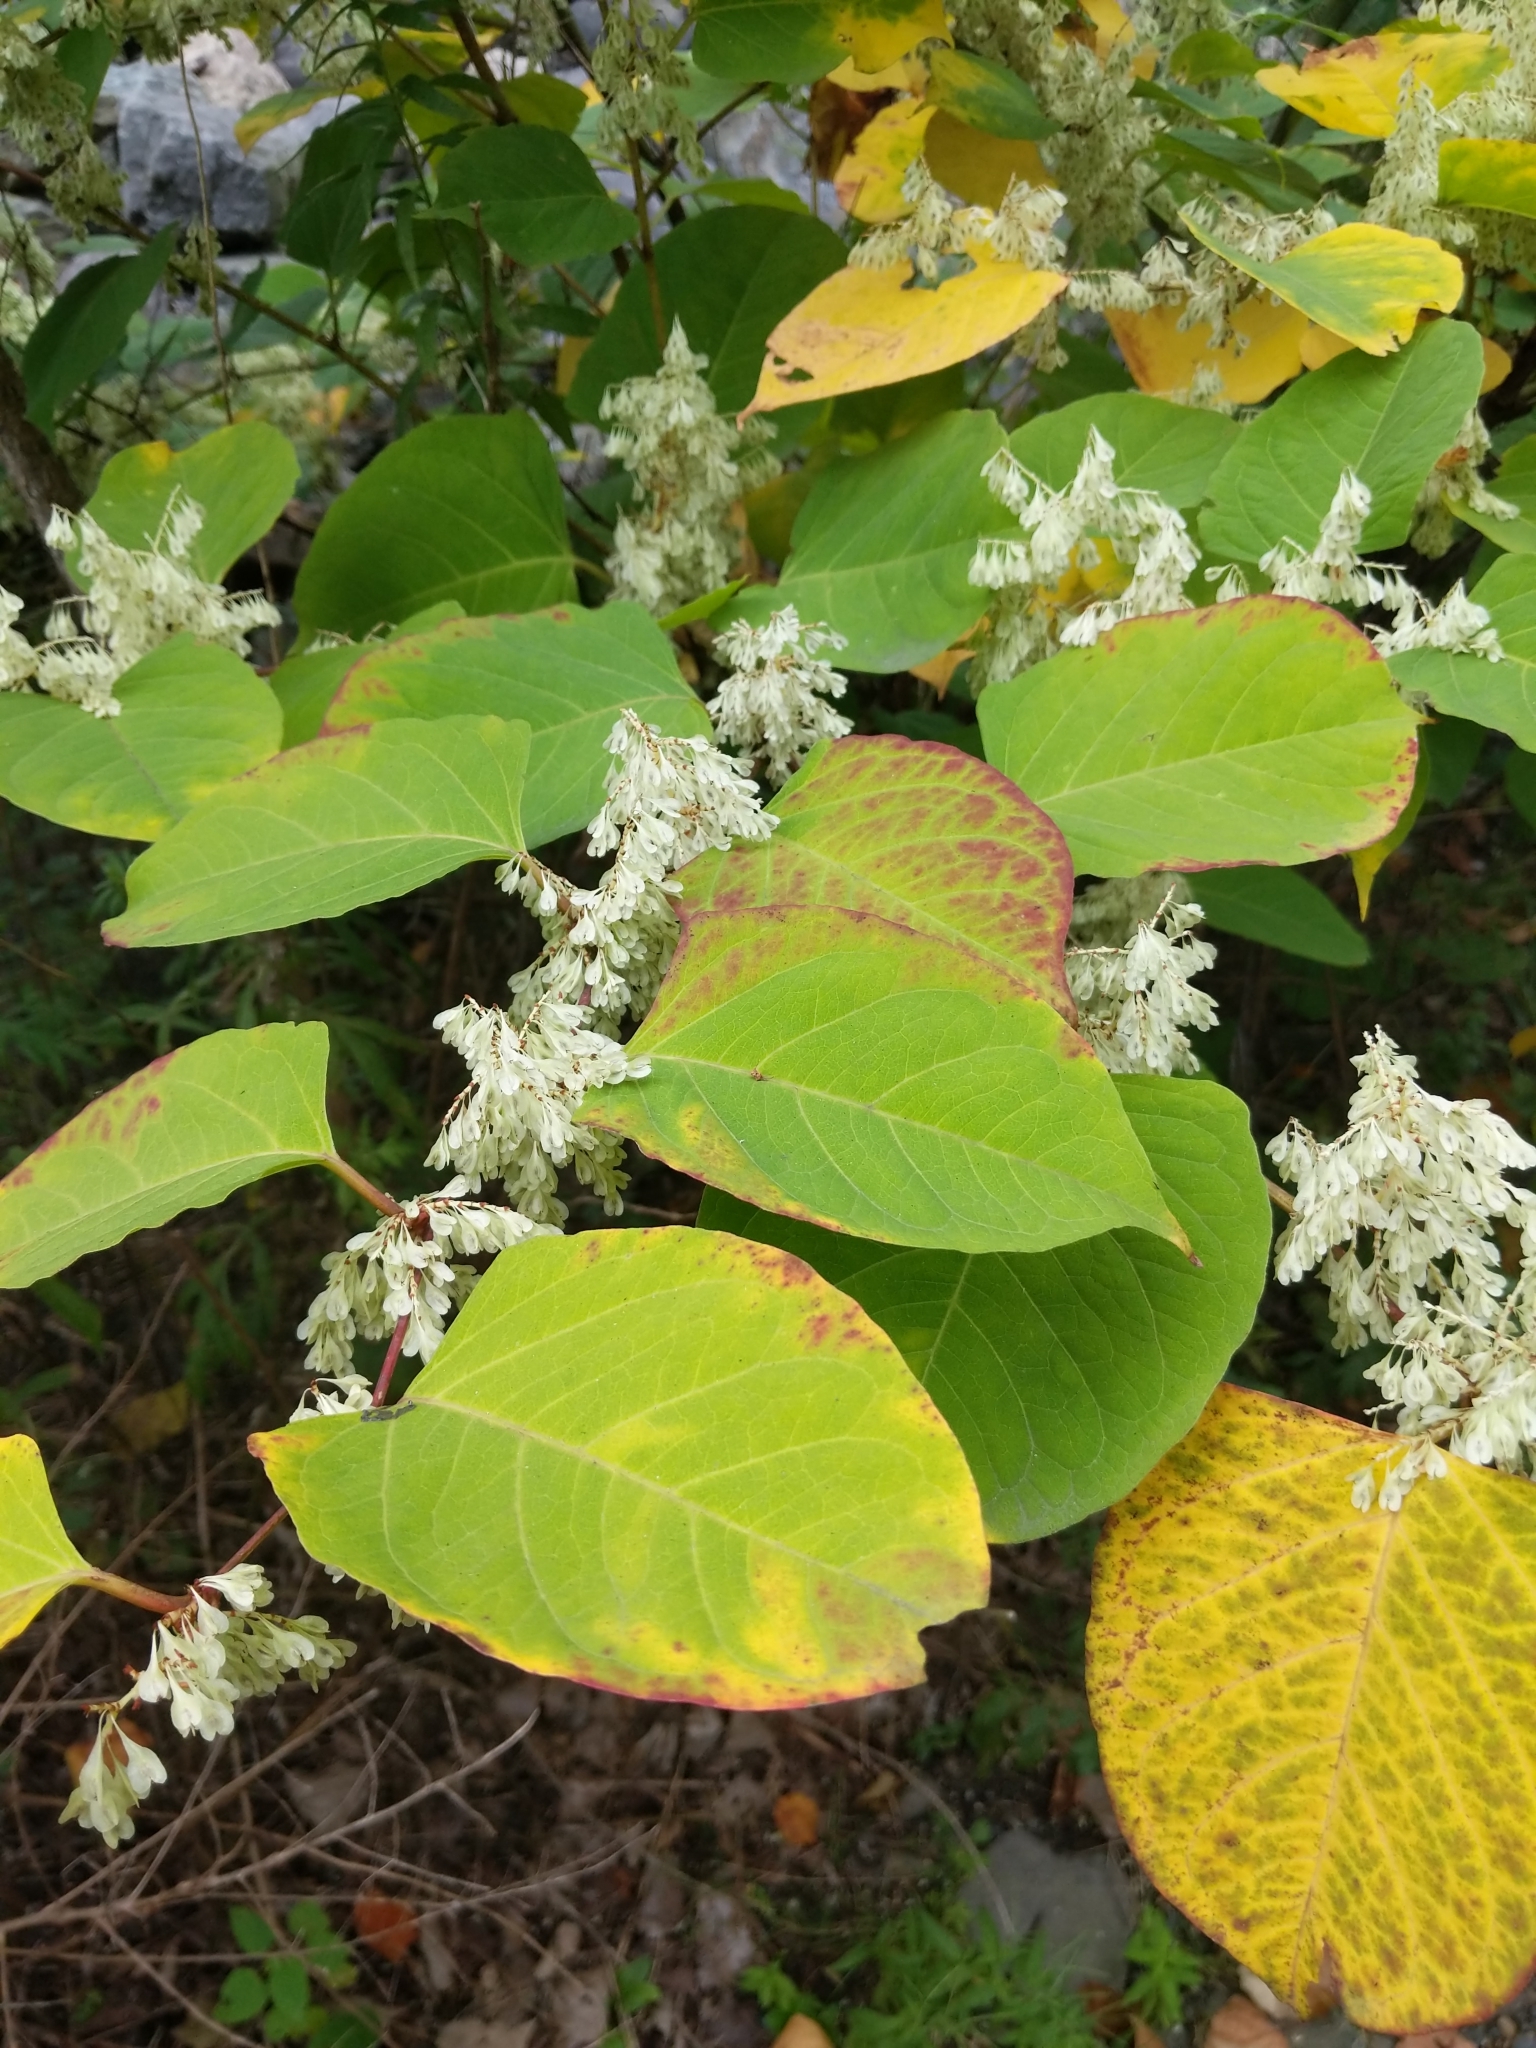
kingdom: Plantae
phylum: Tracheophyta
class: Magnoliopsida
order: Caryophyllales
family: Polygonaceae
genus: Reynoutria
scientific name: Reynoutria japonica
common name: Japanese knotweed
